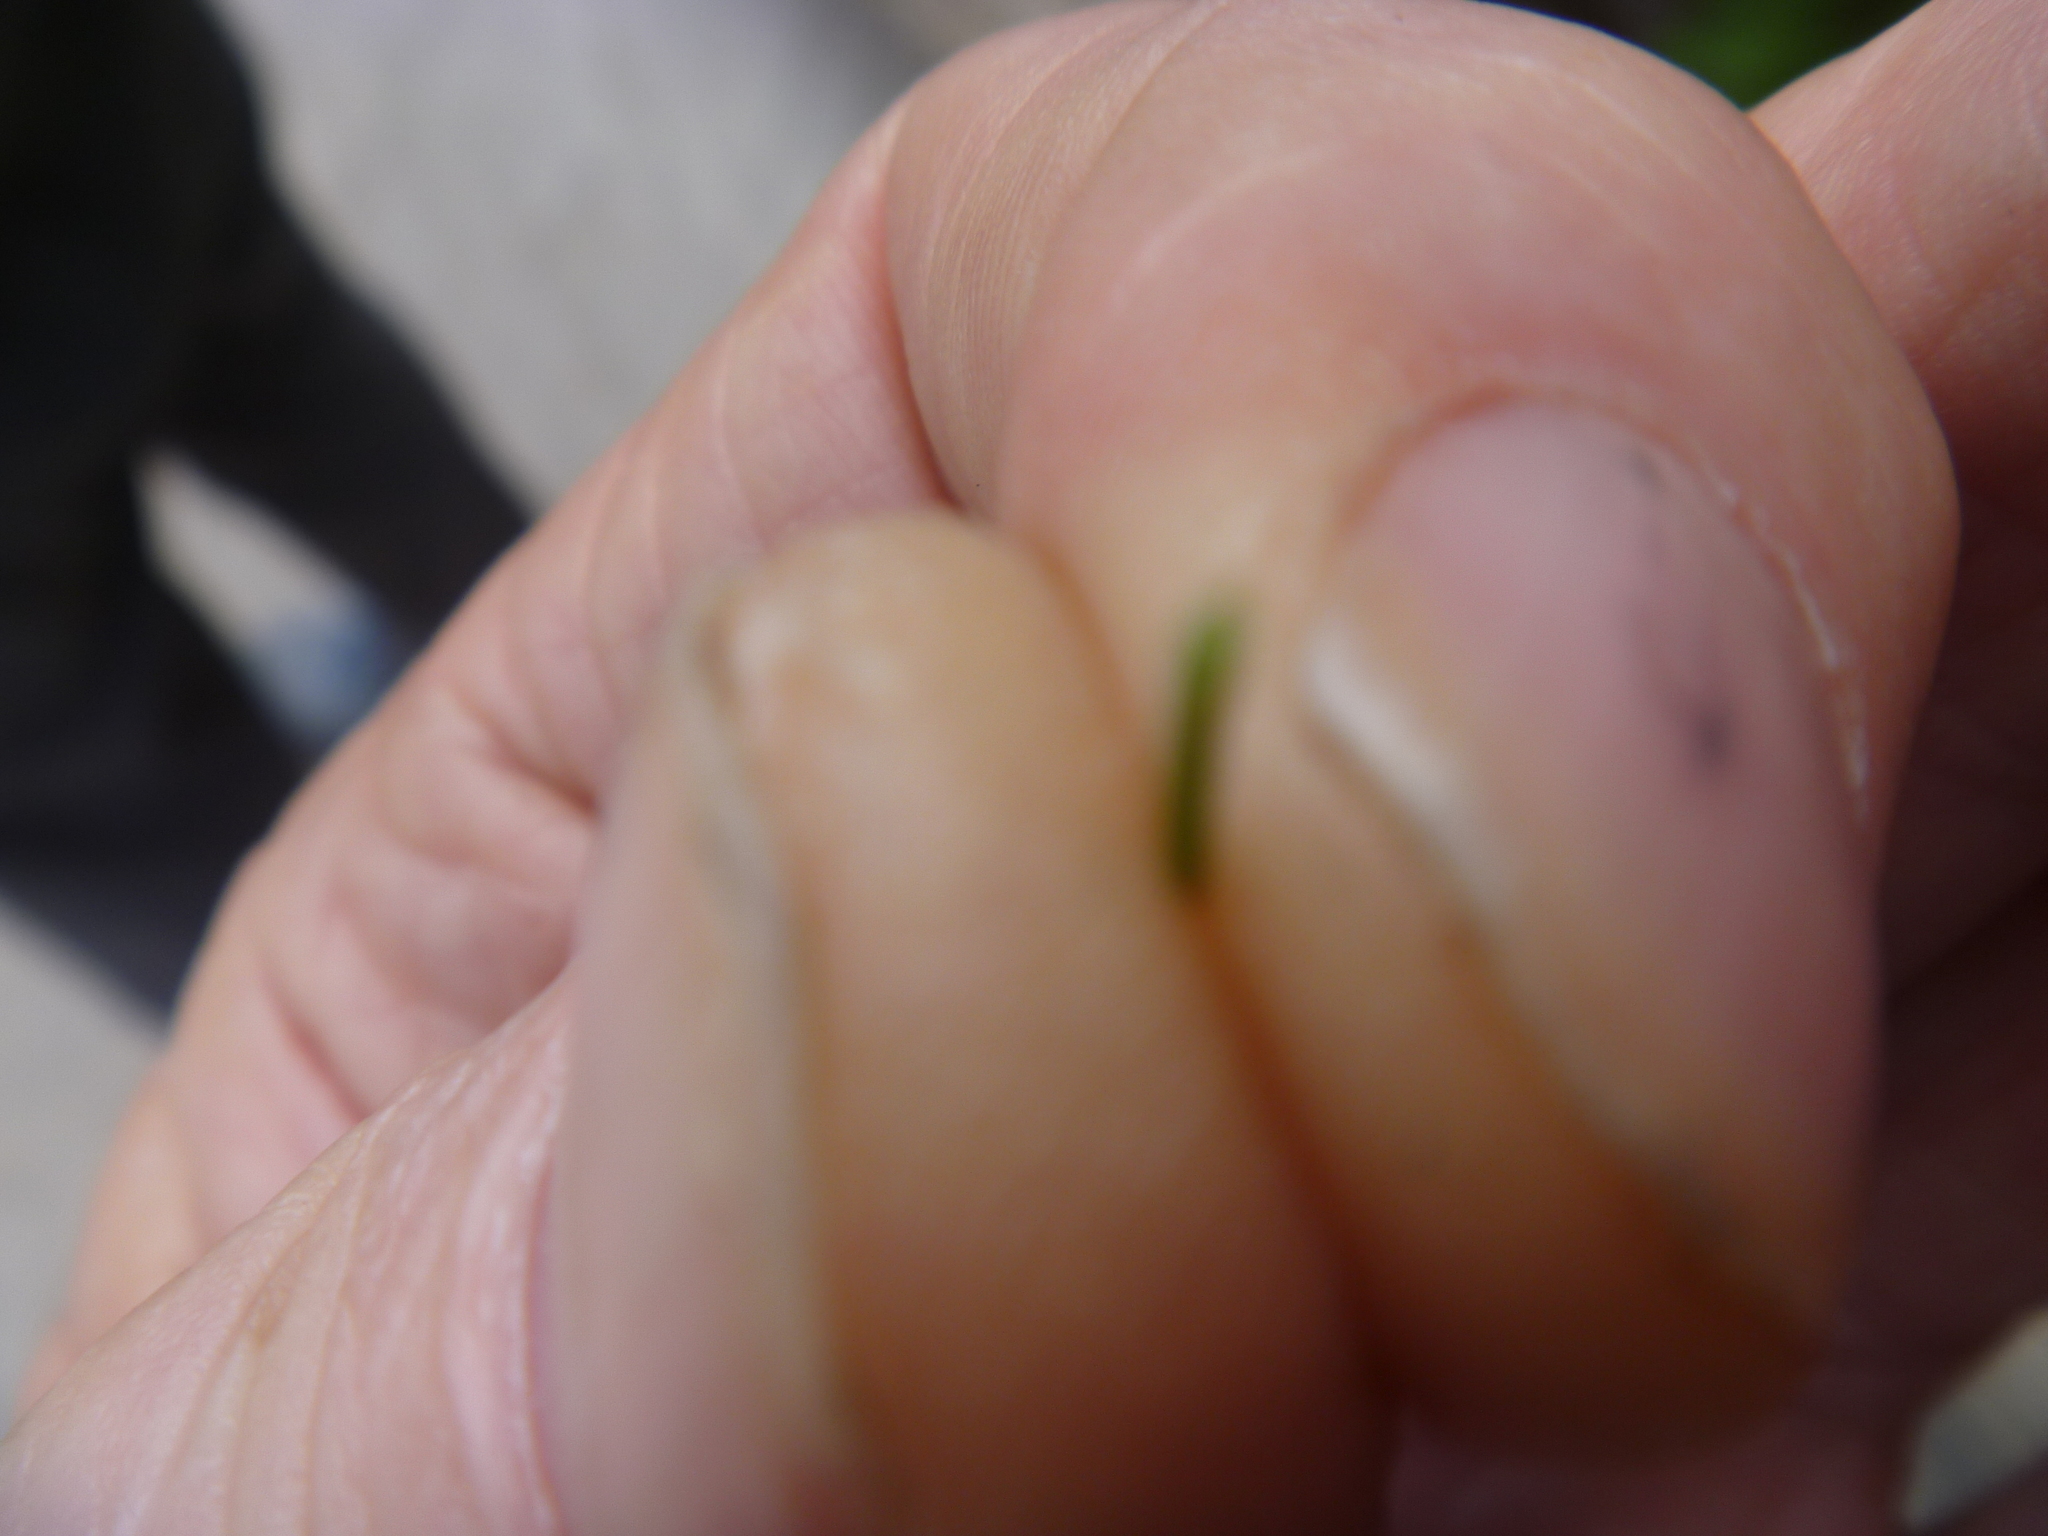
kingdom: Plantae
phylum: Tracheophyta
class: Pinopsida
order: Pinales
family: Pinaceae
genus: Picea
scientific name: Picea koraiensis
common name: Korean spruce
